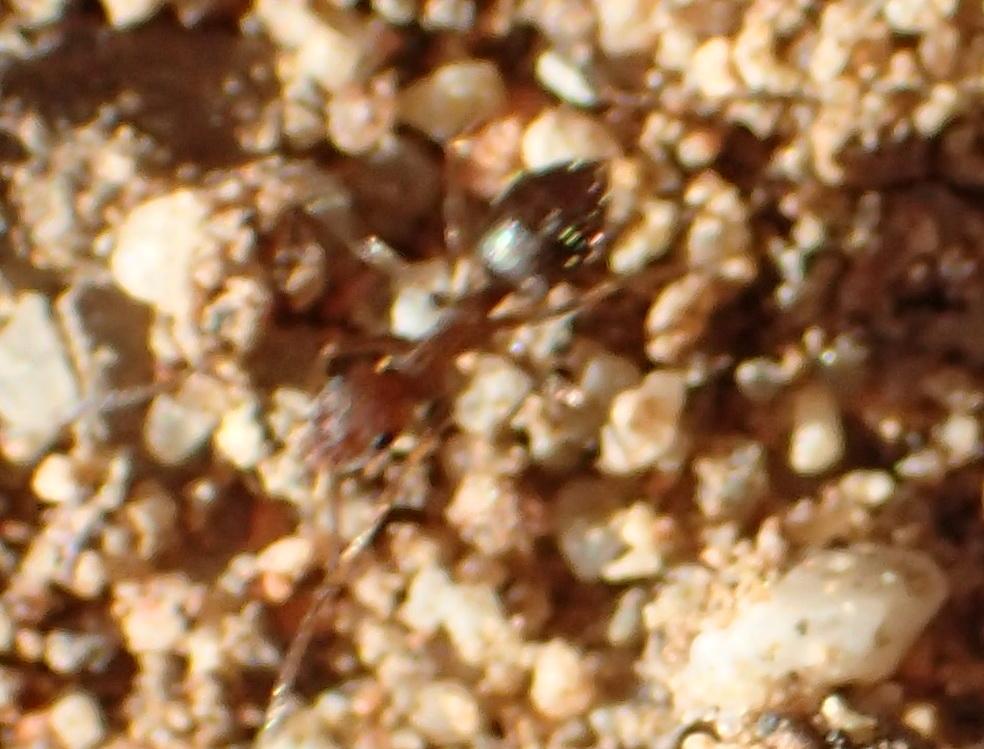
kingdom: Animalia
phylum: Arthropoda
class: Insecta
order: Hymenoptera
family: Formicidae
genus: Anoplolepis
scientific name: Anoplolepis custodiens
